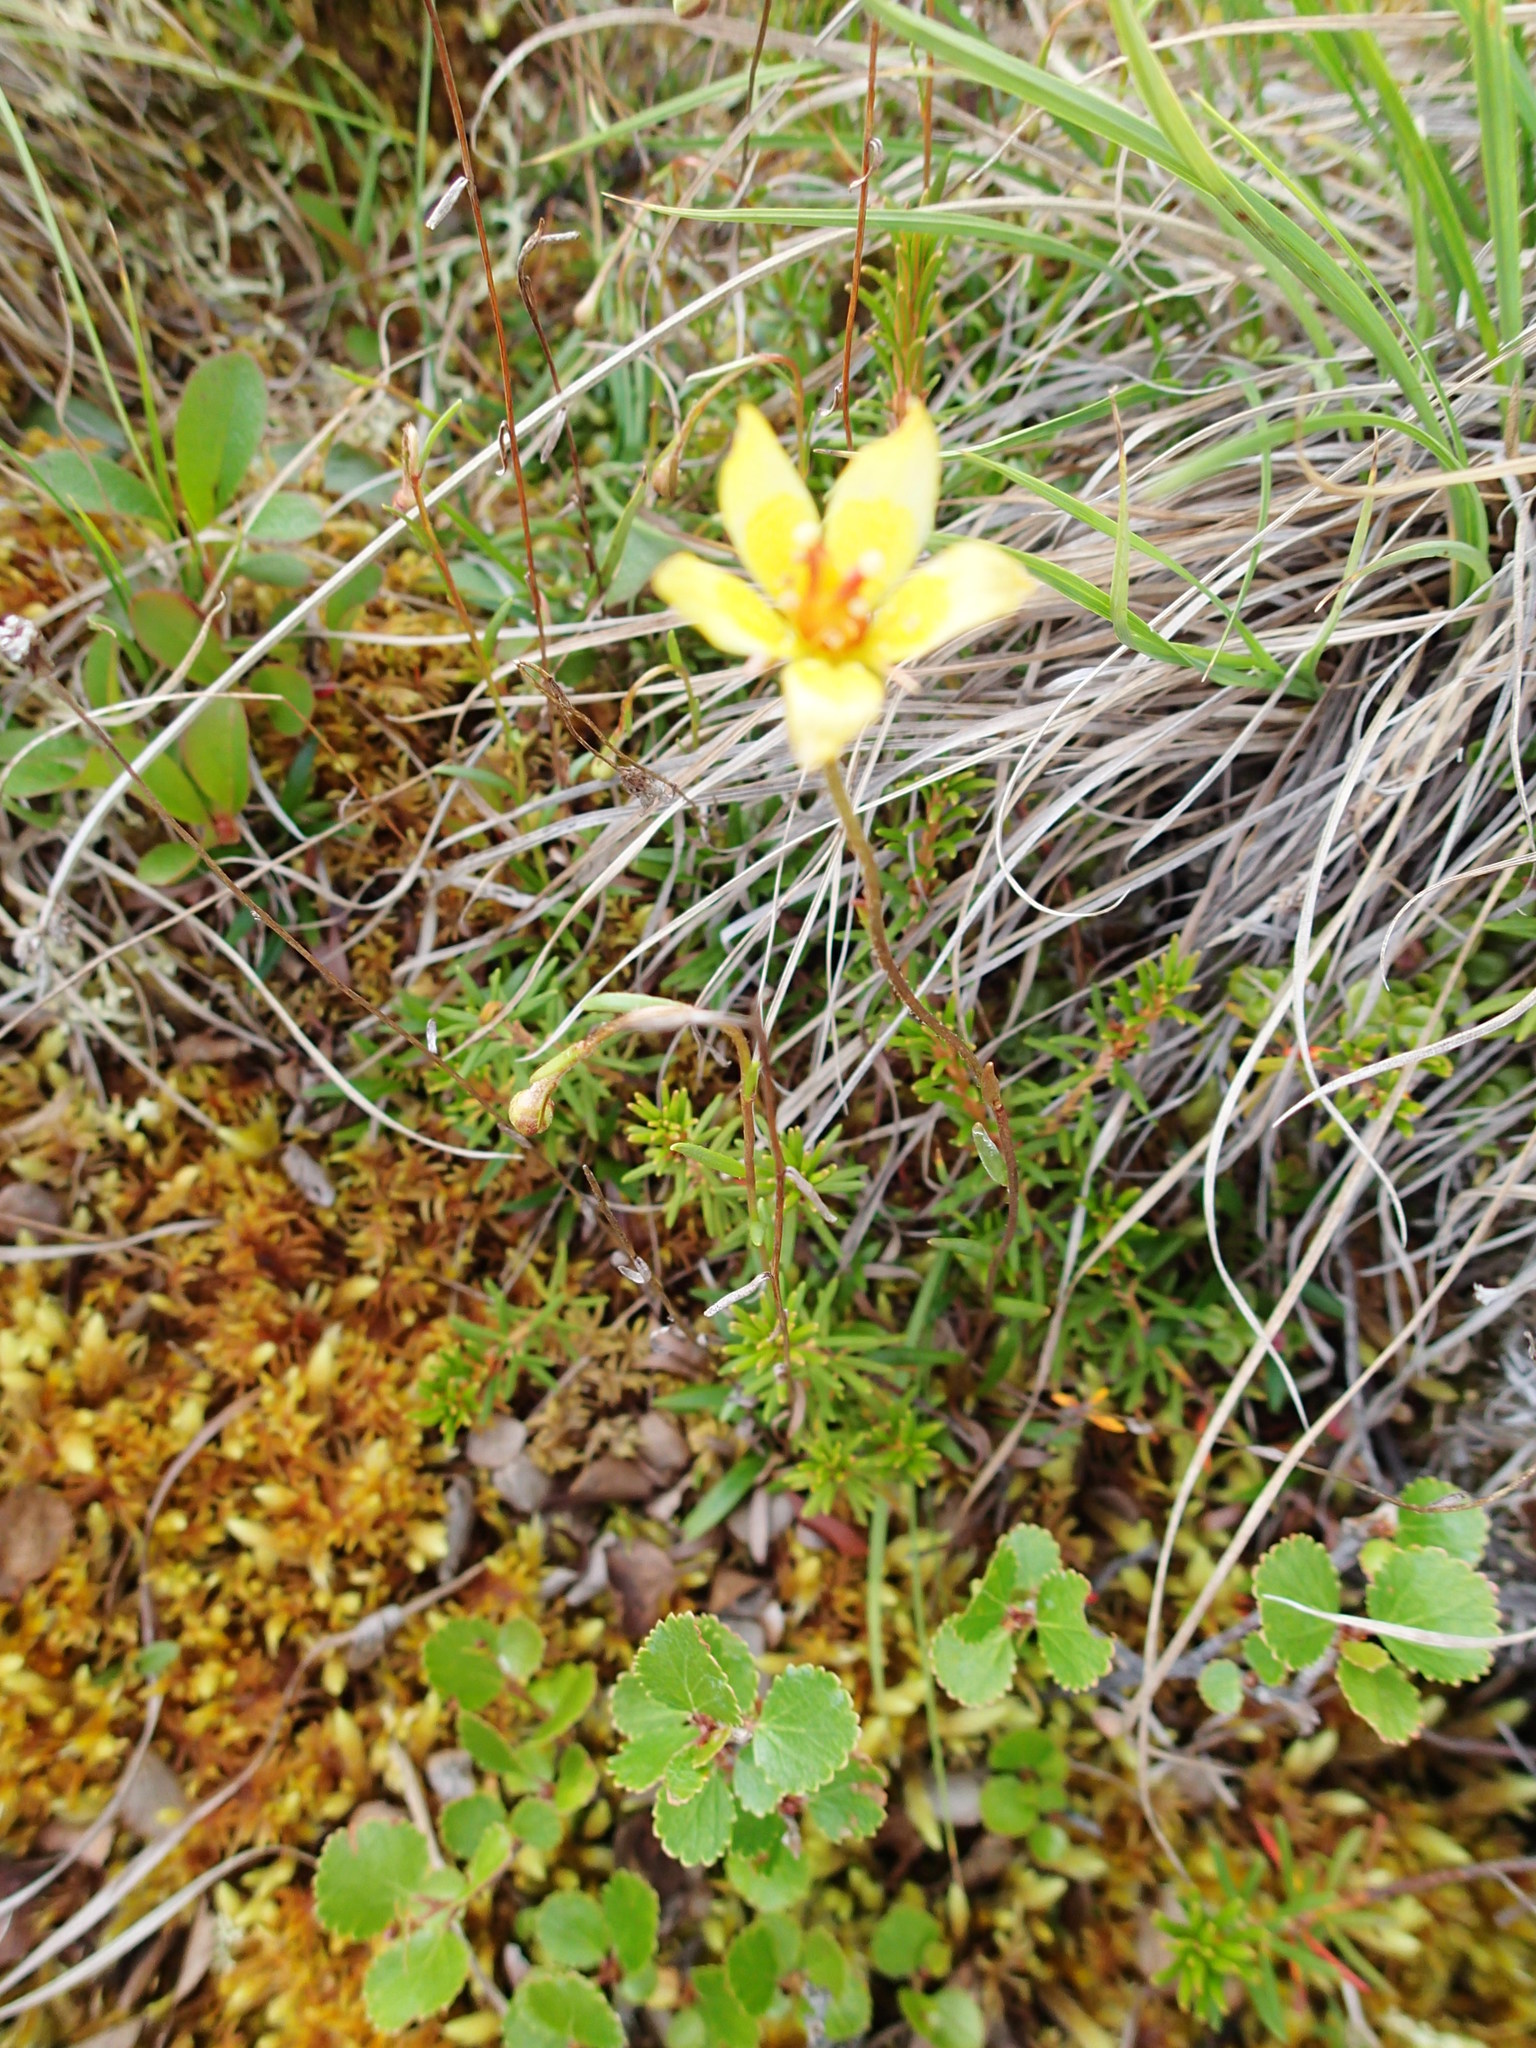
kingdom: Plantae
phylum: Tracheophyta
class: Magnoliopsida
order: Saxifragales
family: Saxifragaceae
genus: Saxifraga
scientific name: Saxifraga hirculus
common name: Yellow marsh saxifrage
